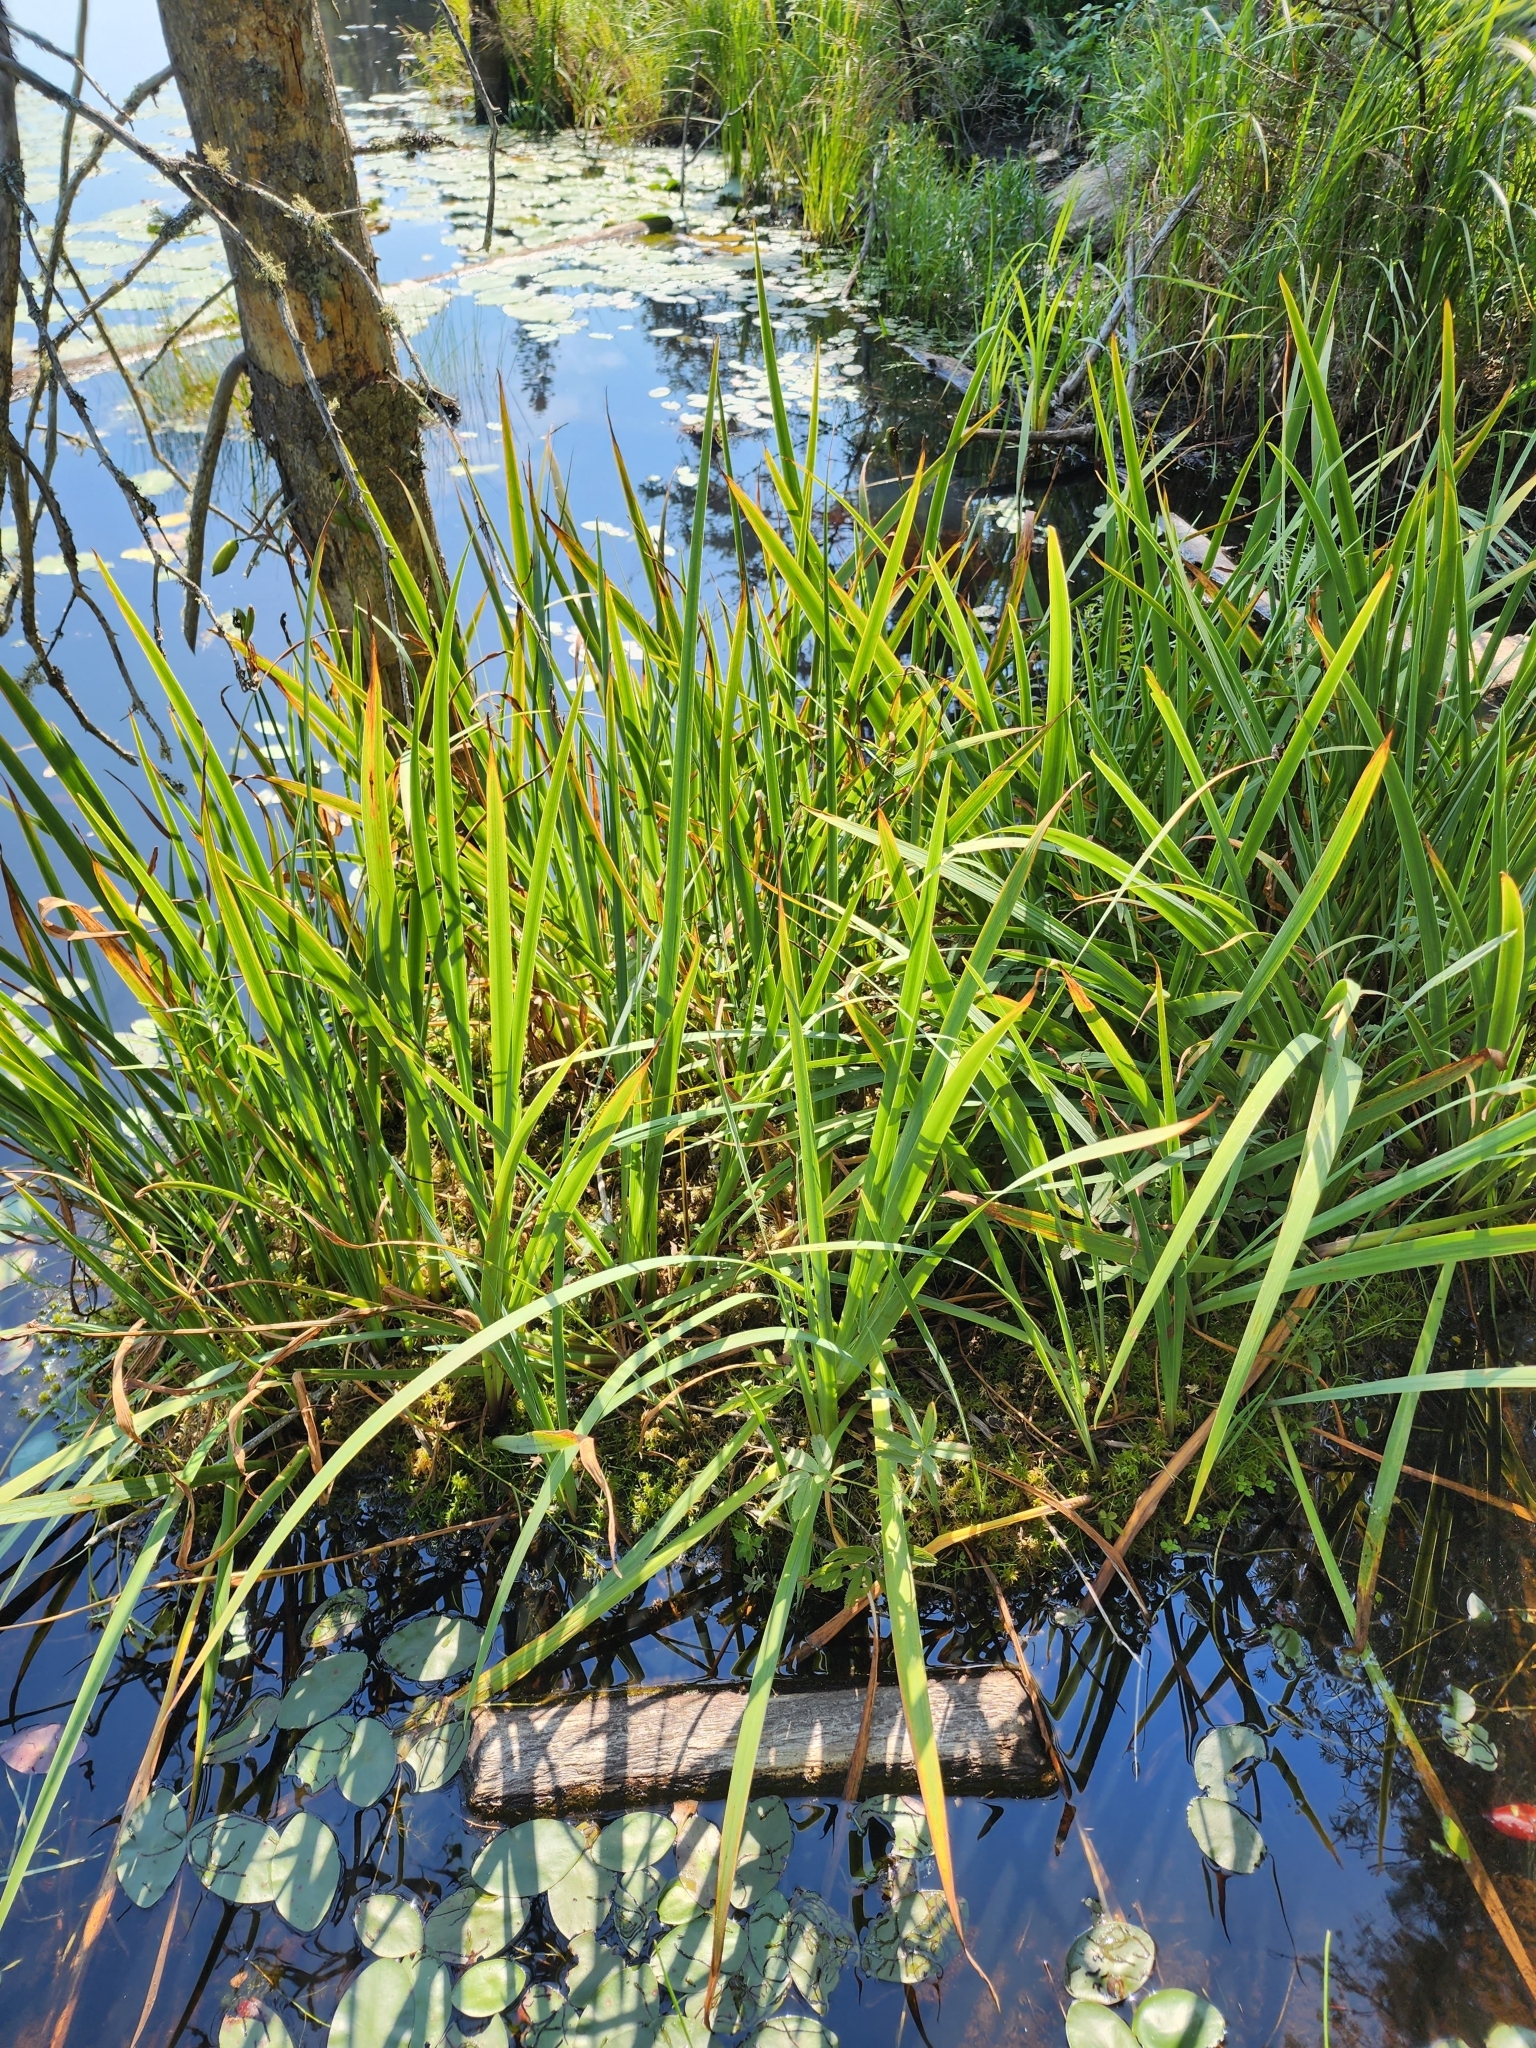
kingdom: Plantae
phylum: Tracheophyta
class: Liliopsida
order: Asparagales
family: Iridaceae
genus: Iris
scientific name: Iris versicolor
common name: Purple iris
